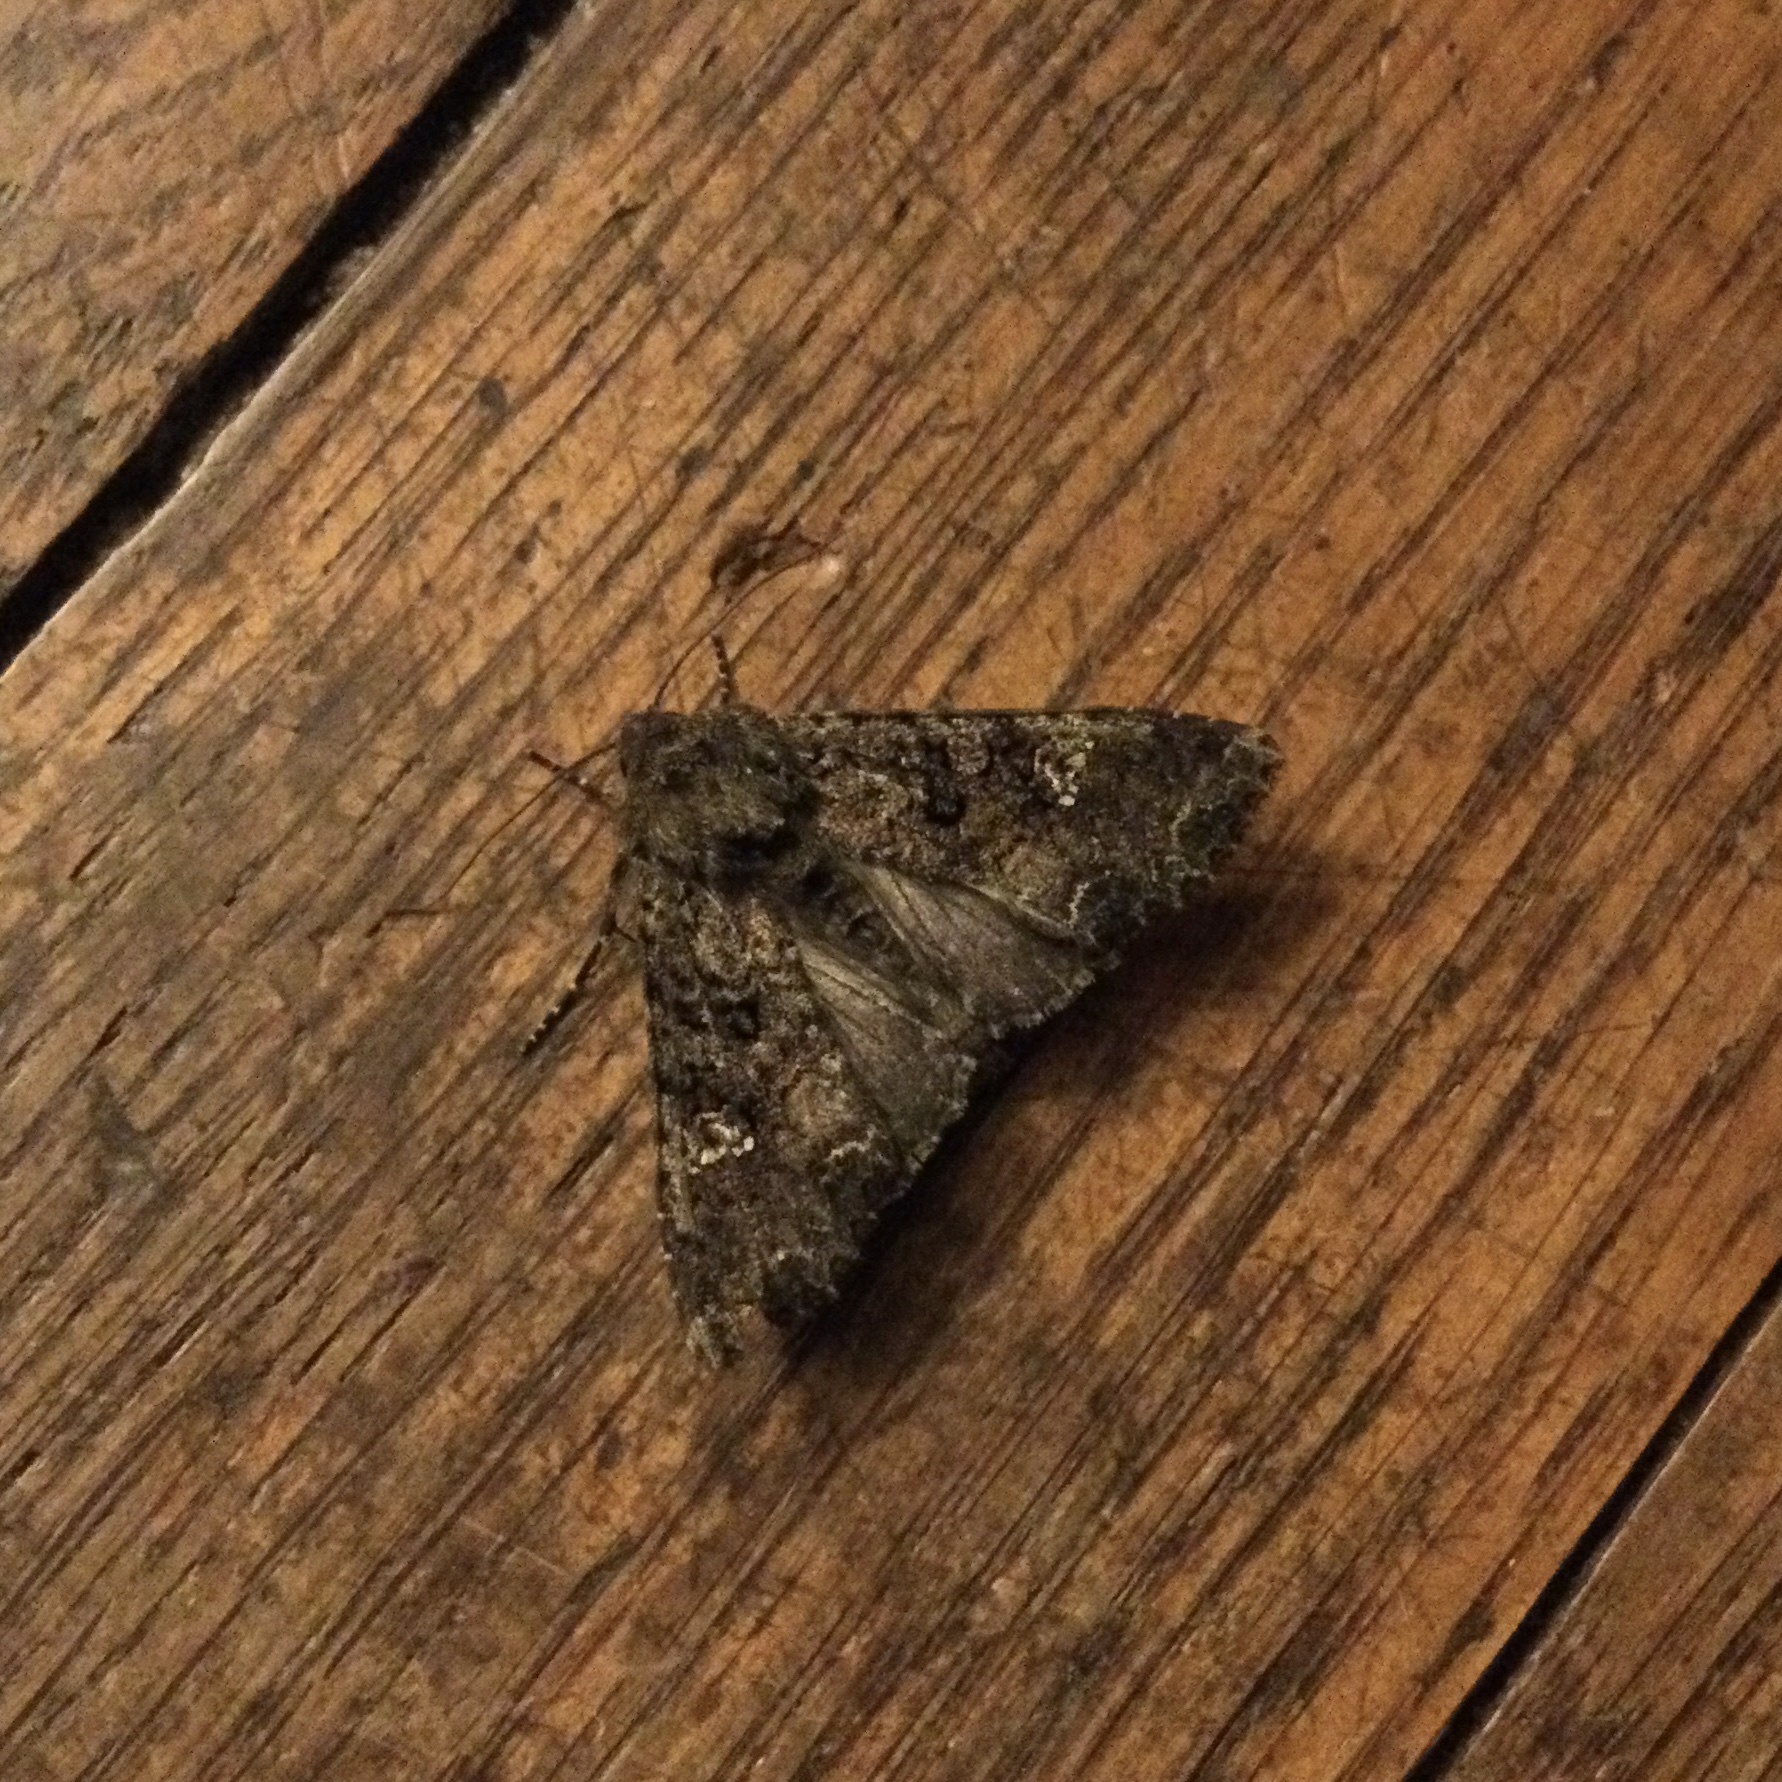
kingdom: Animalia
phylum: Arthropoda
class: Insecta
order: Lepidoptera
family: Noctuidae
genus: Mamestra
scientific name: Mamestra brassicae
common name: Cabbage moth
